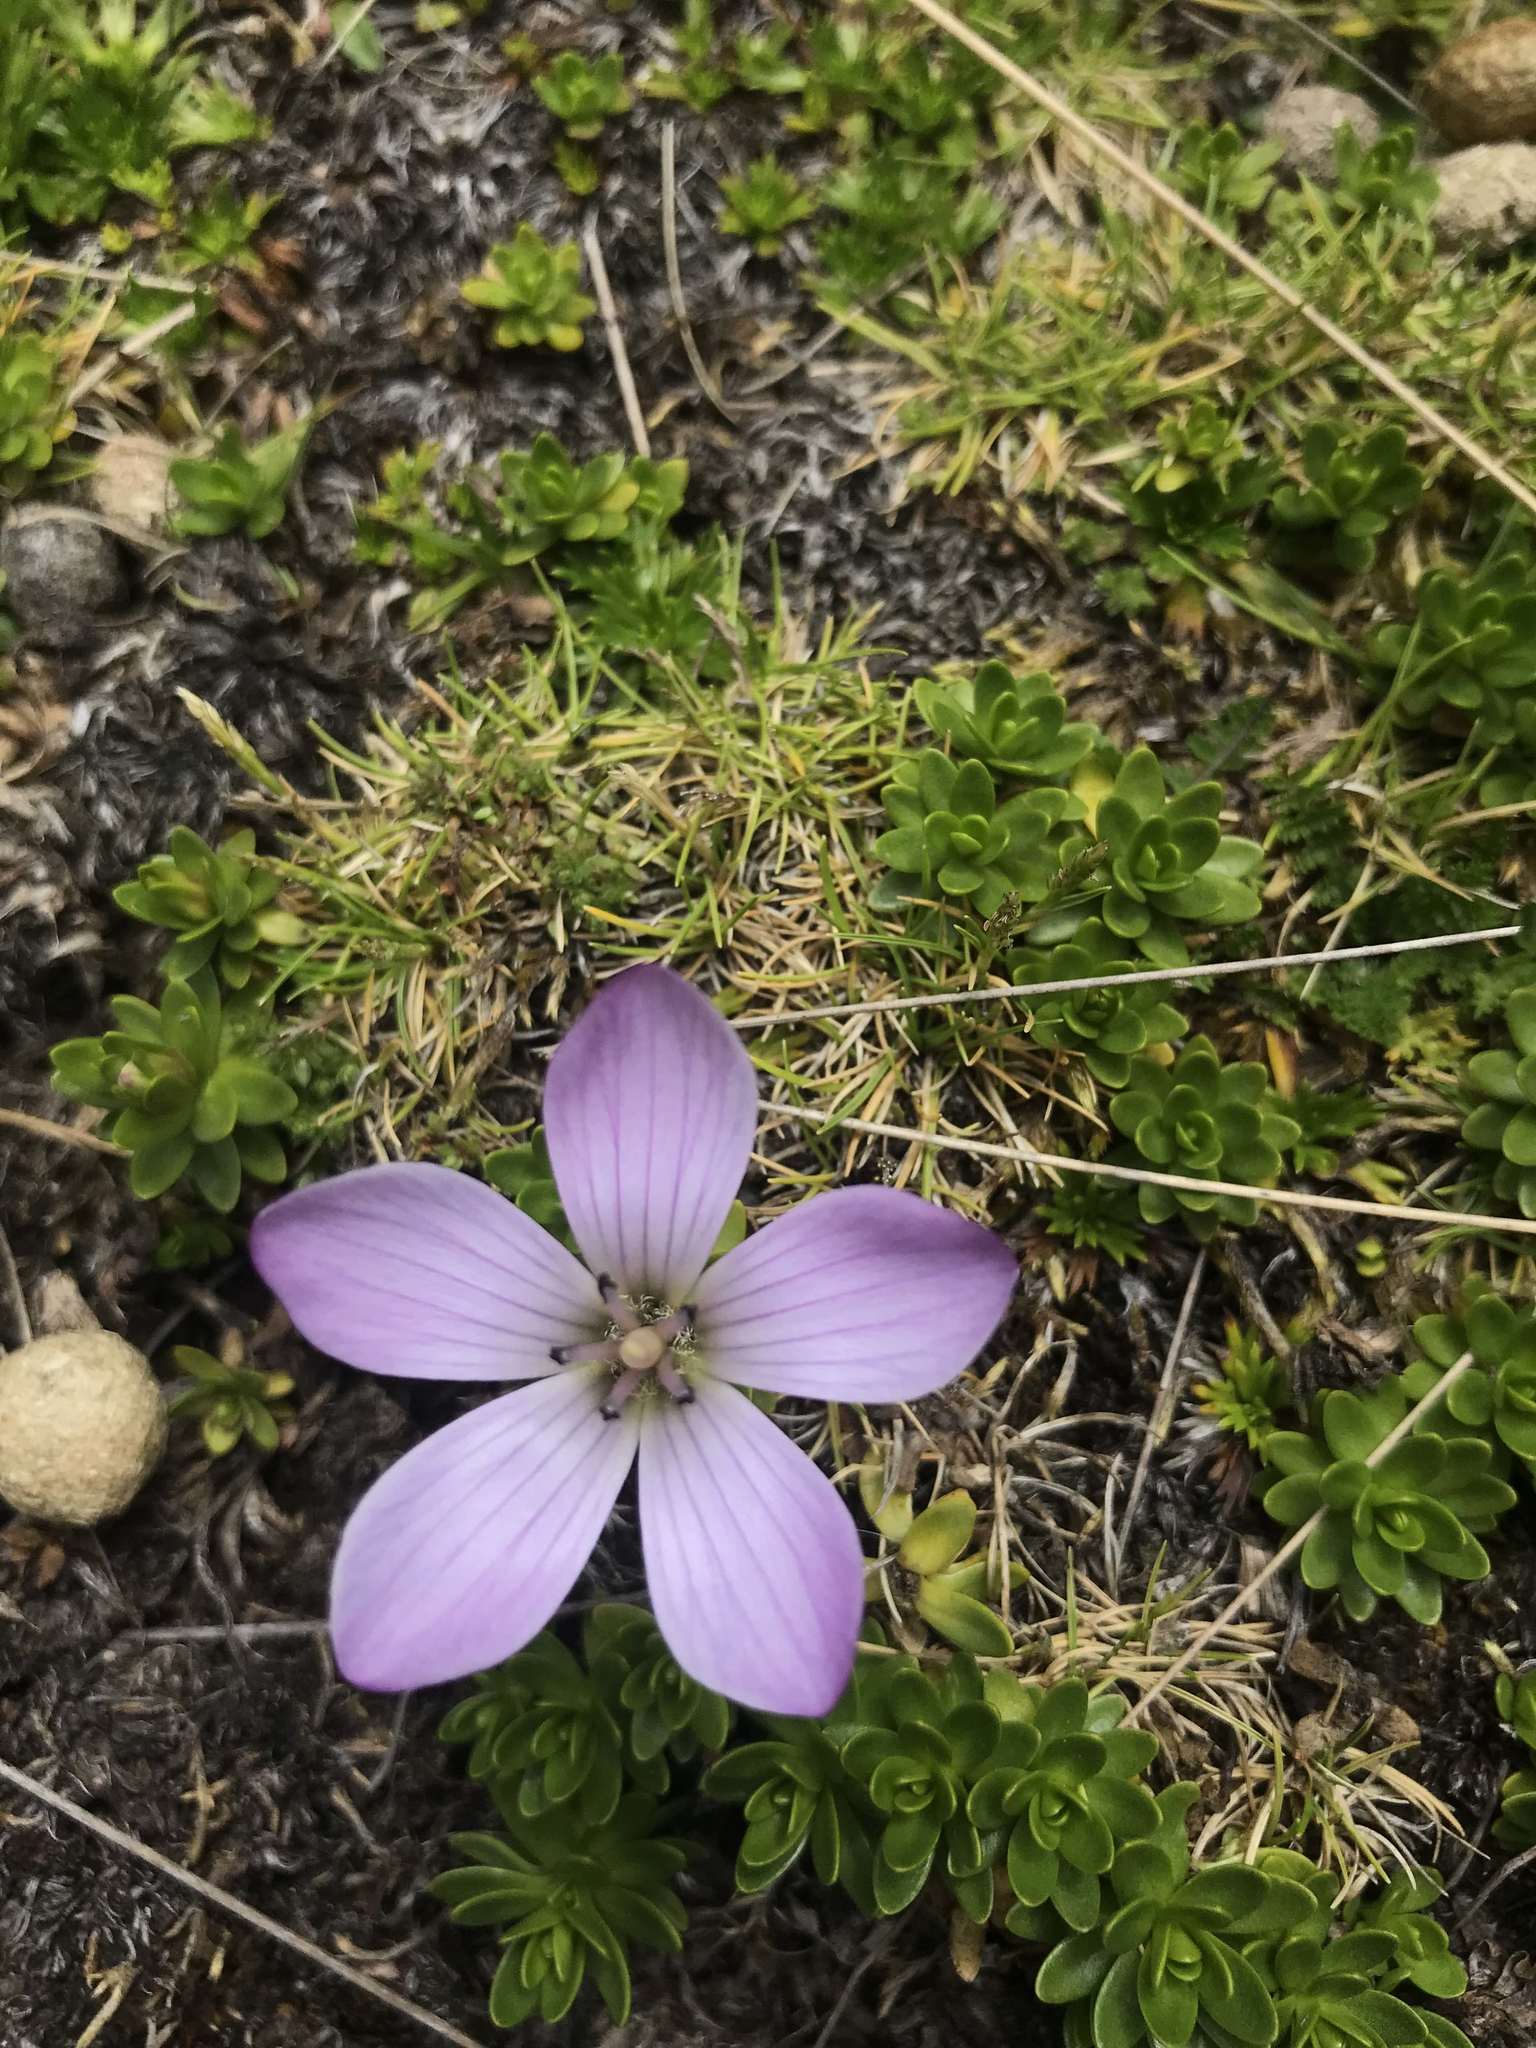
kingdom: Plantae
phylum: Tracheophyta
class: Magnoliopsida
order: Gentianales
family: Gentianaceae
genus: Gentianella
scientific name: Gentianella cerastioides
